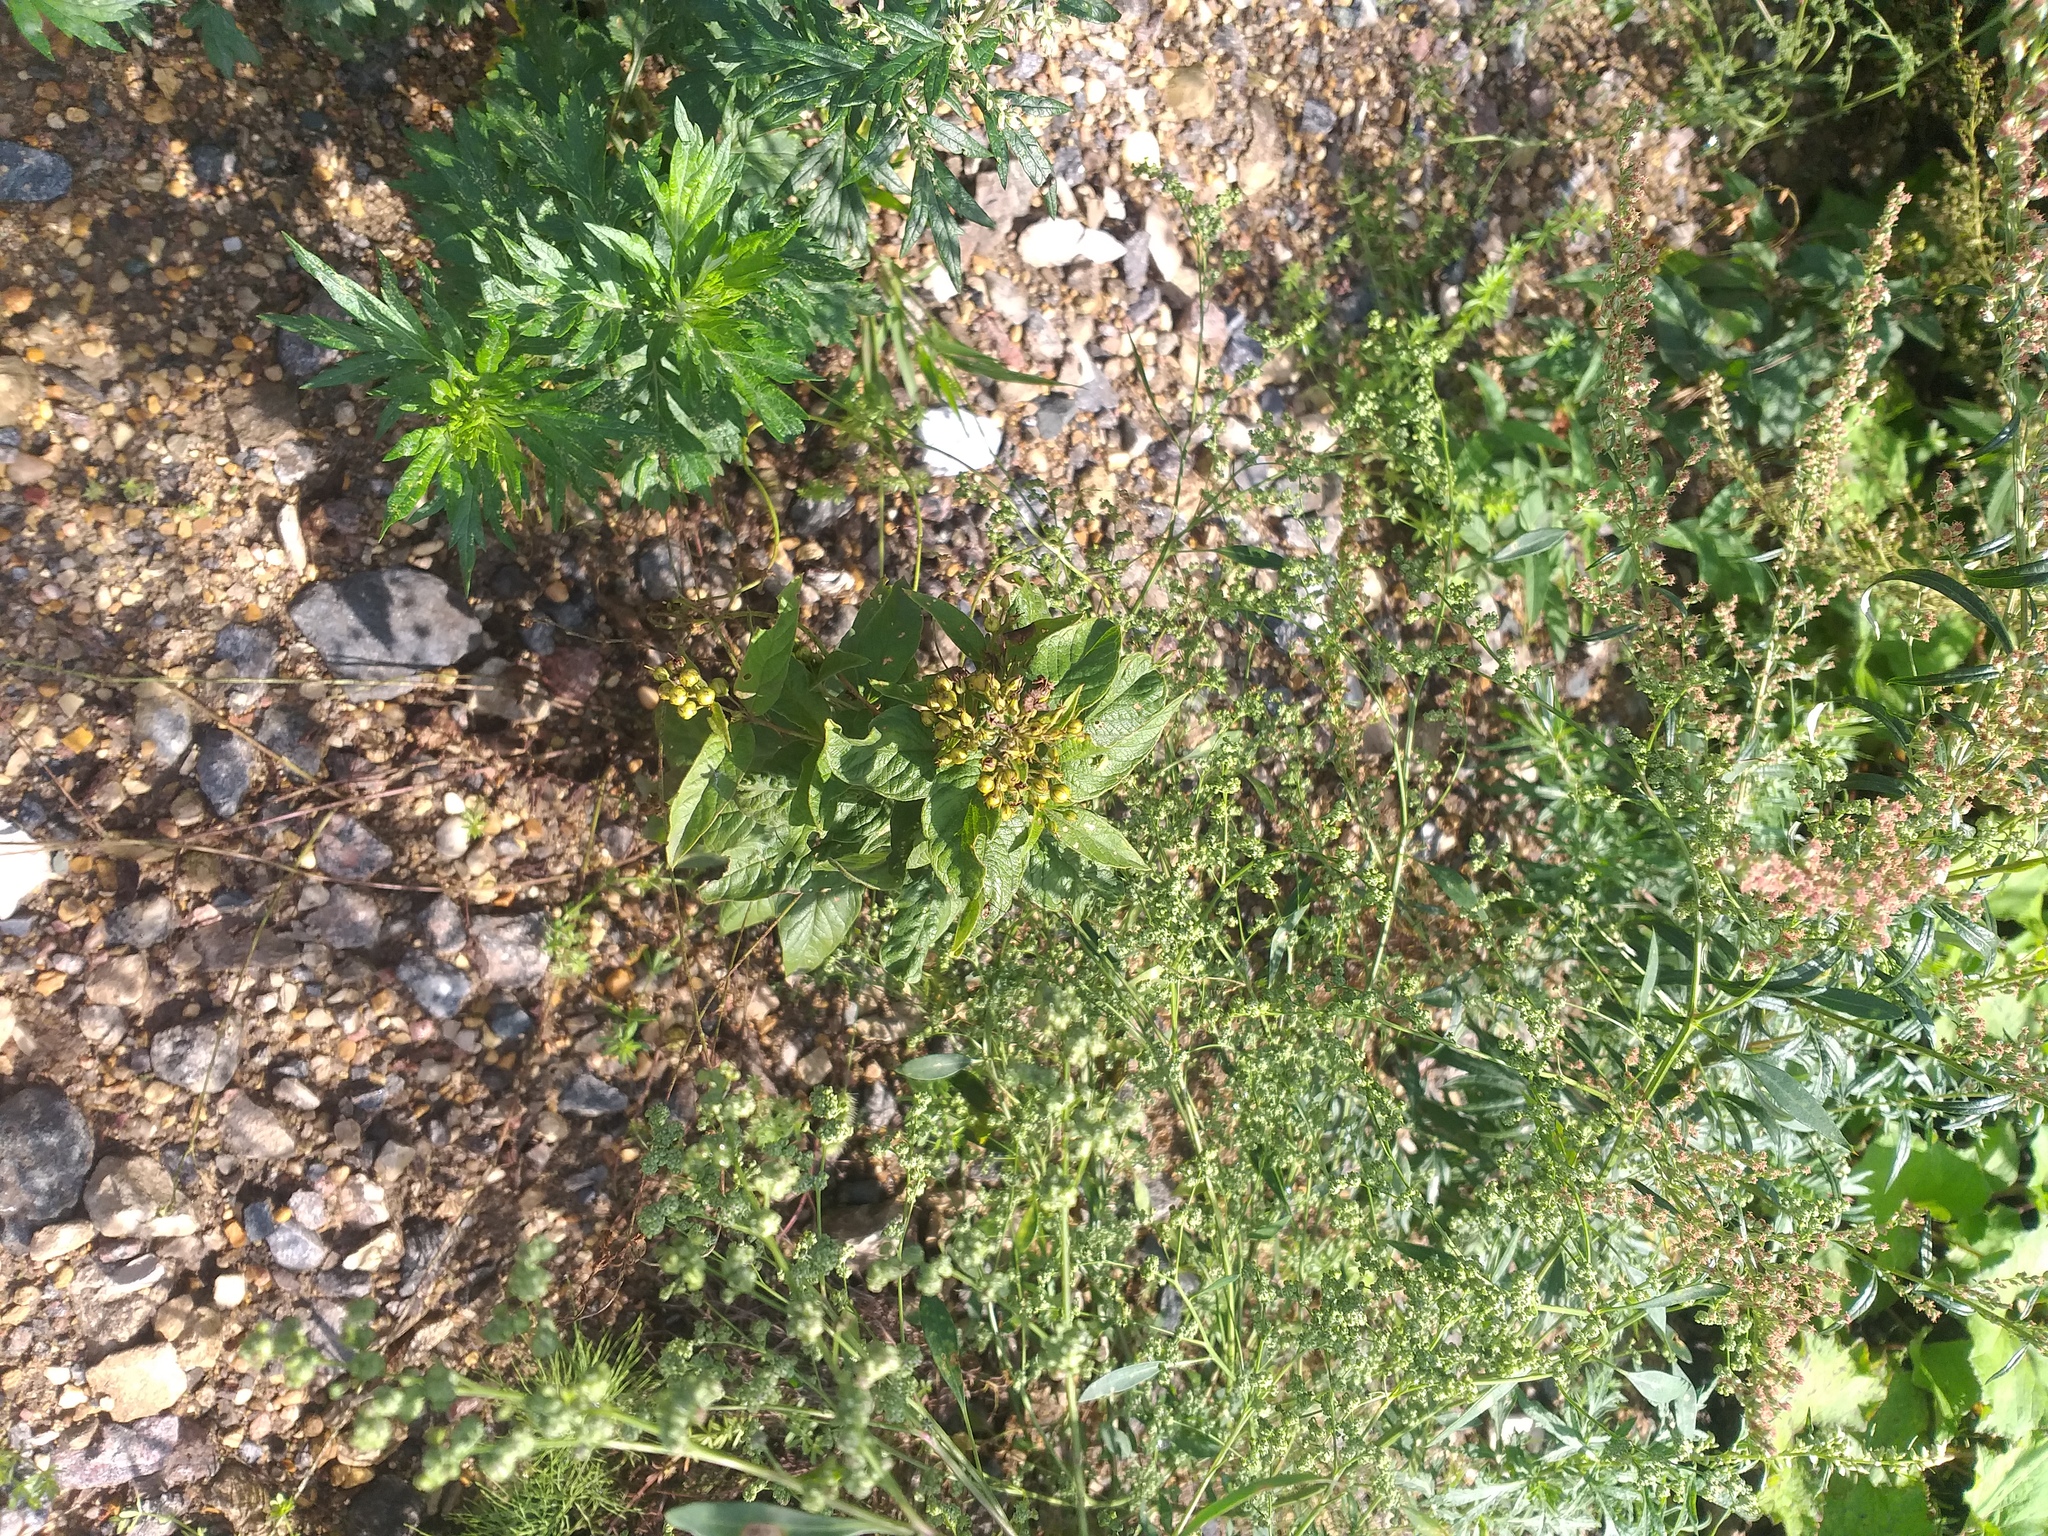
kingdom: Plantae
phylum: Tracheophyta
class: Magnoliopsida
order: Ericales
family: Primulaceae
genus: Lysimachia
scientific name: Lysimachia vulgaris
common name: Yellow loosestrife
